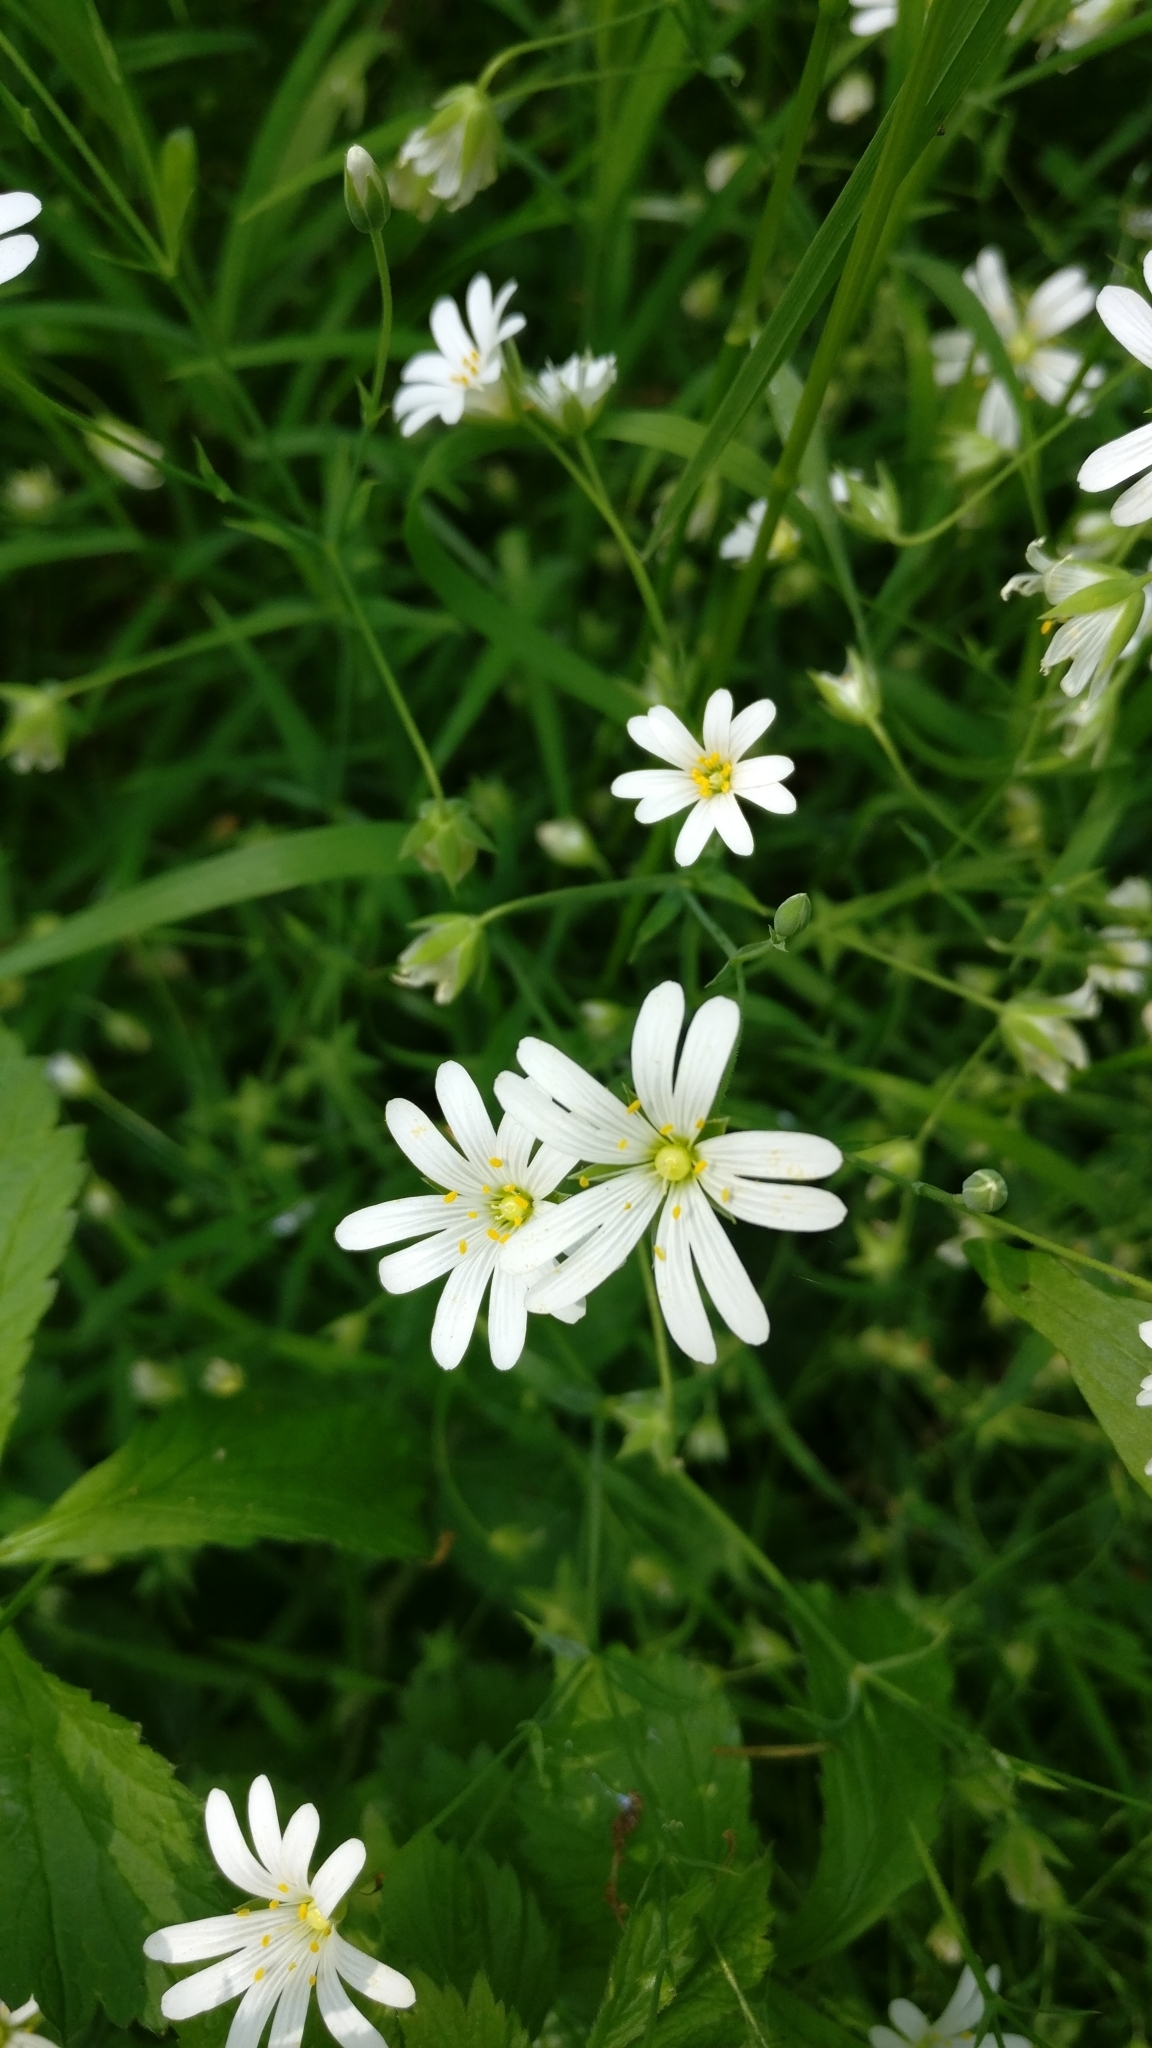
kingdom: Plantae
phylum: Tracheophyta
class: Magnoliopsida
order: Caryophyllales
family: Caryophyllaceae
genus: Rabelera
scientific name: Rabelera holostea
